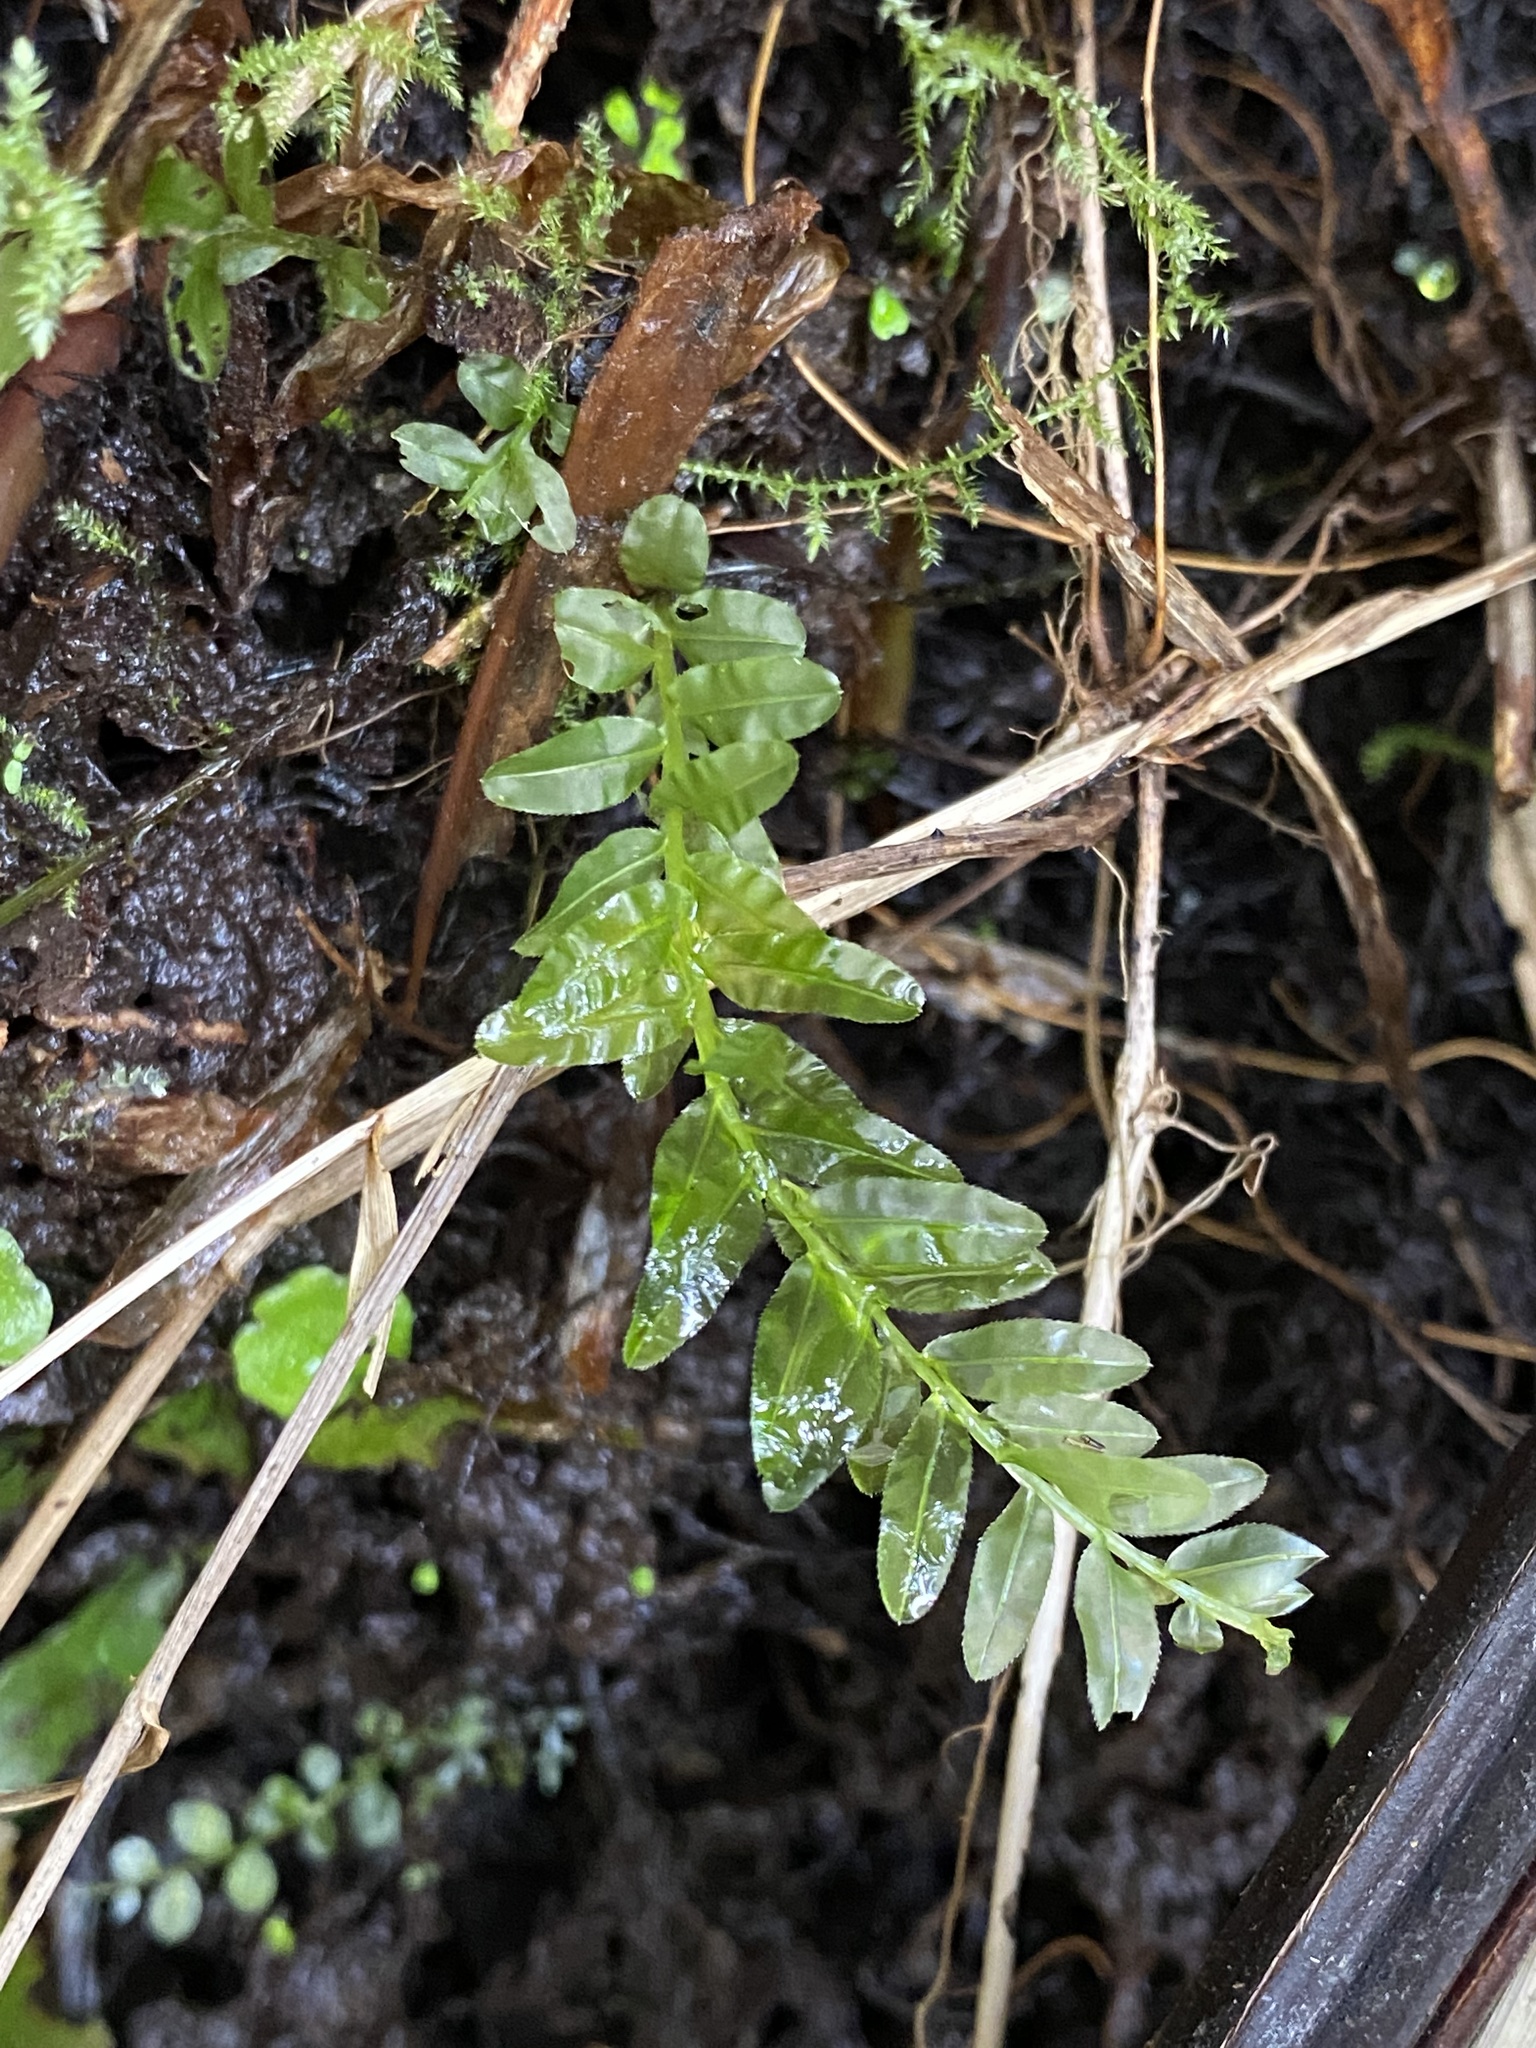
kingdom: Plantae
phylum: Bryophyta
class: Bryopsida
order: Bryales
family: Mniaceae
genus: Plagiomnium
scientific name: Plagiomnium undulatum
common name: Hart's-tongue thyme-moss
